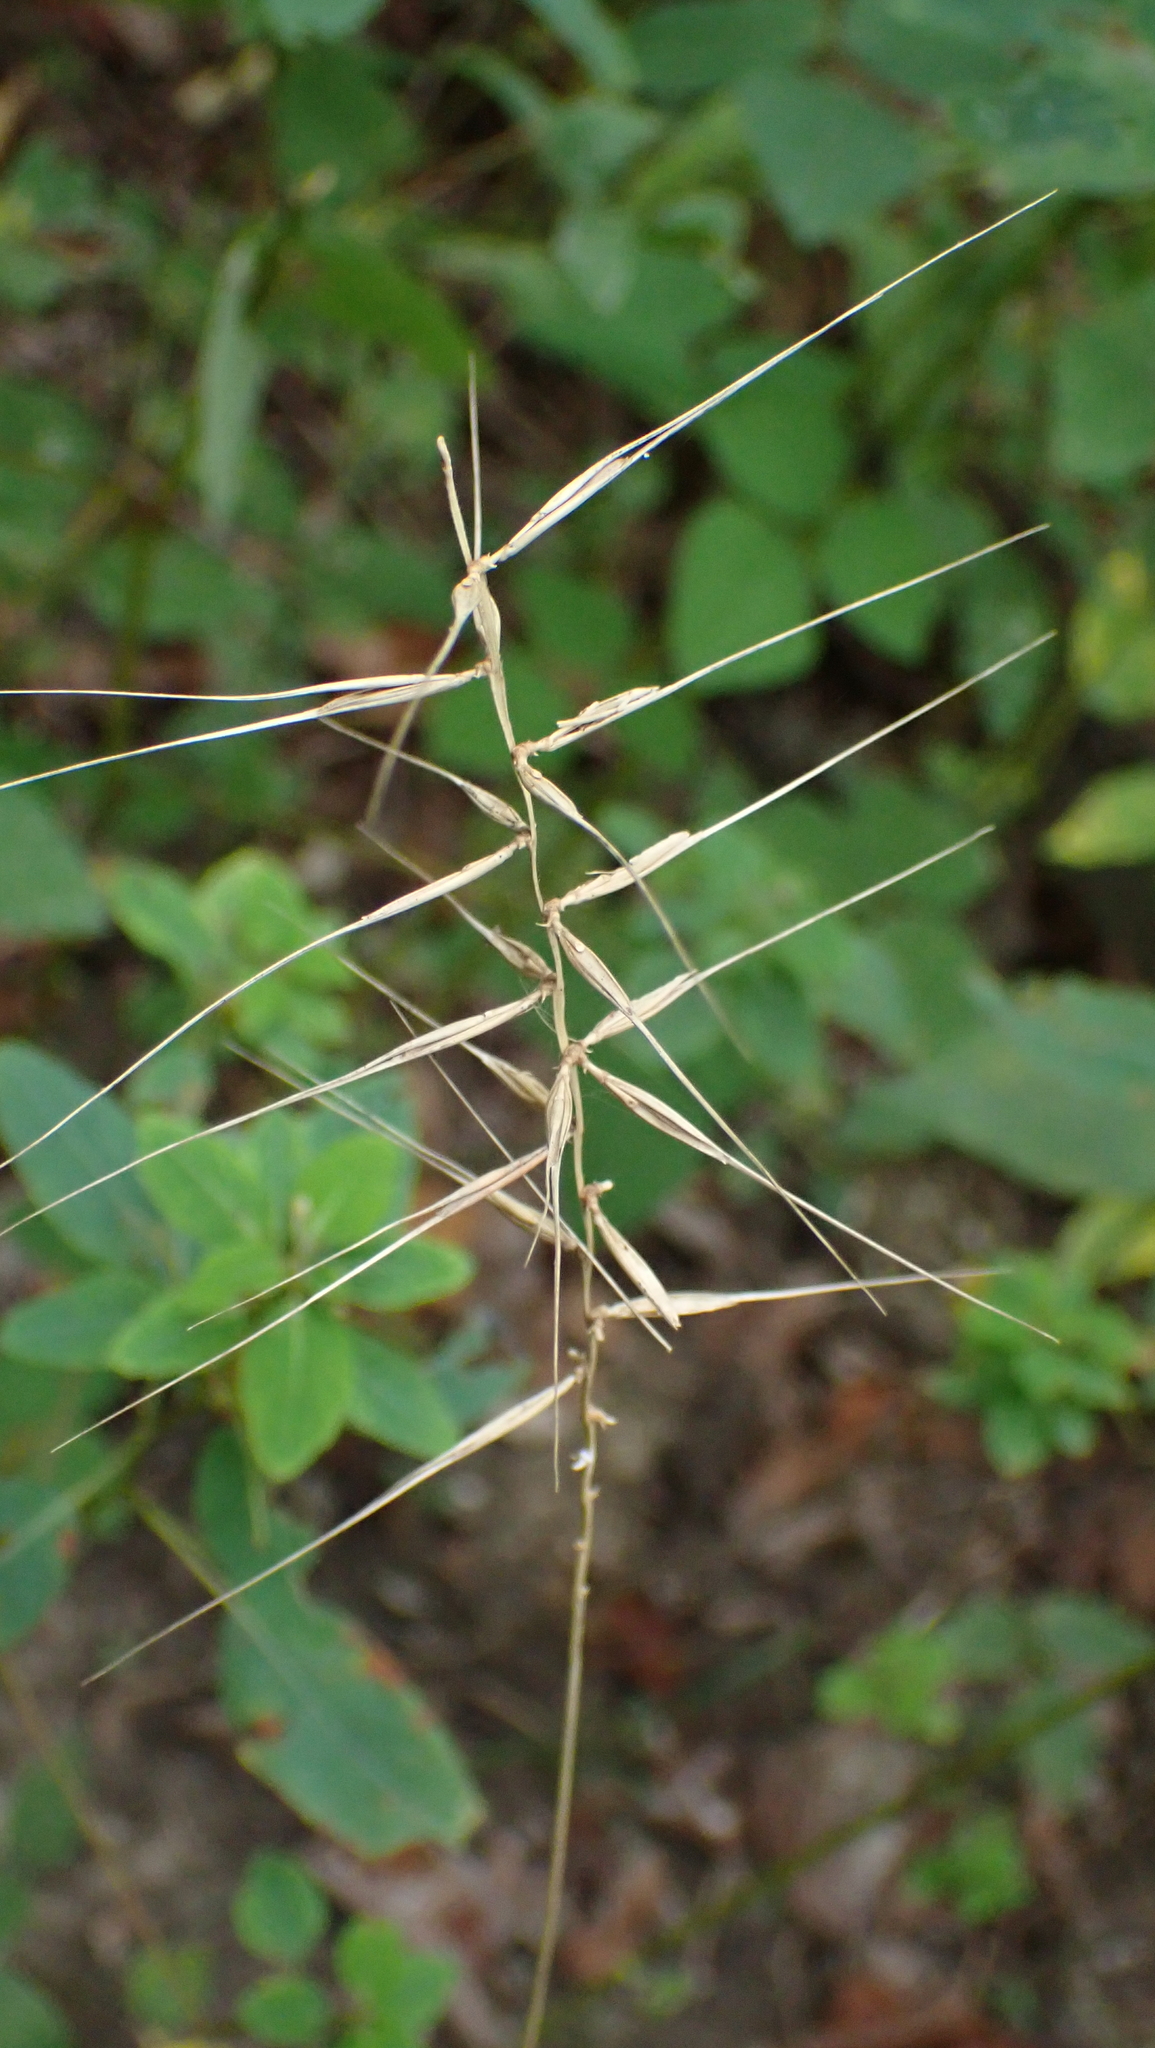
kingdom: Plantae
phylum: Tracheophyta
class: Liliopsida
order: Poales
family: Poaceae
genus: Elymus
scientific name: Elymus hystrix
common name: Bottlebrush grass
